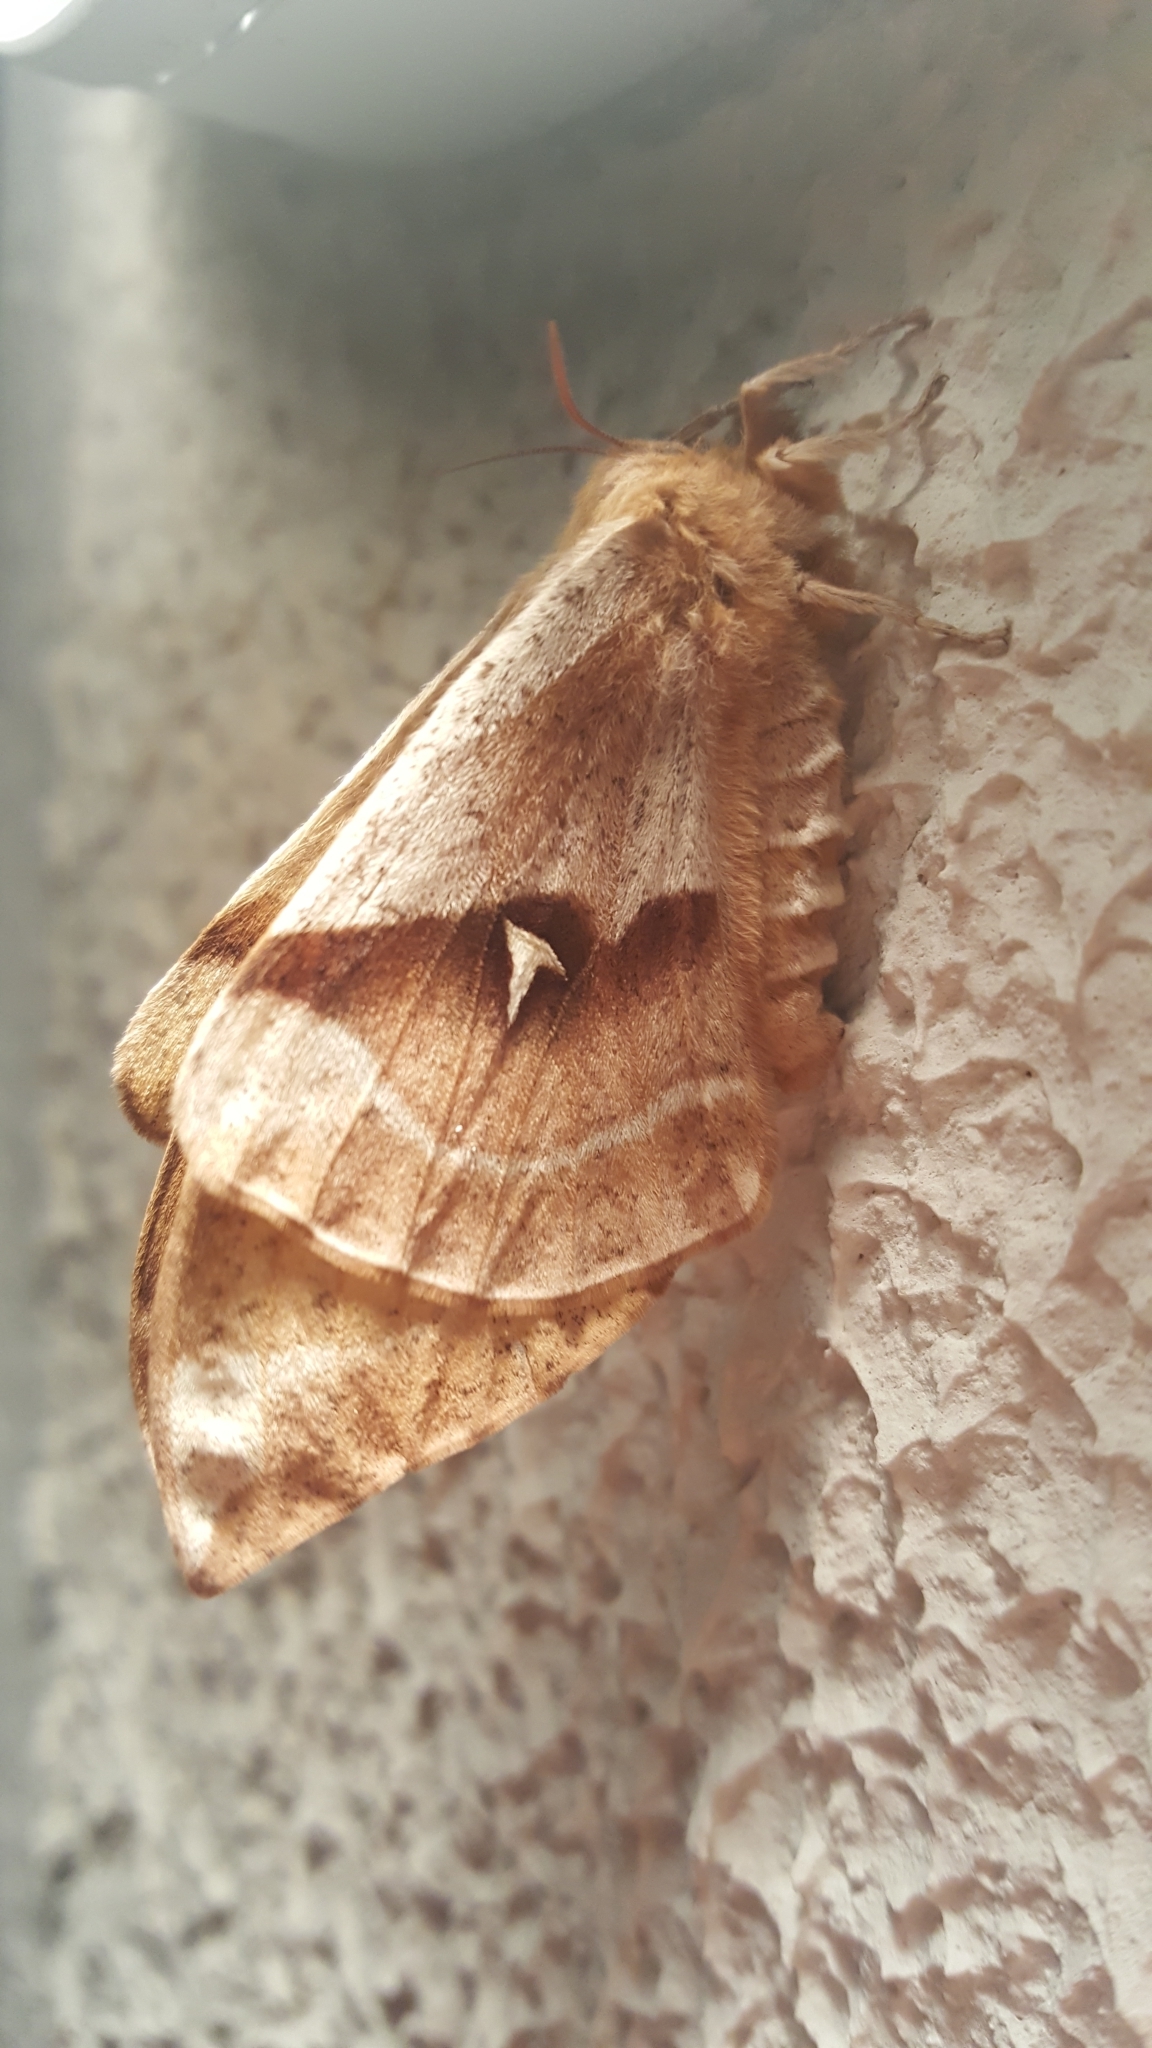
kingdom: Animalia
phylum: Arthropoda
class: Insecta
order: Lepidoptera
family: Saturniidae
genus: Aglia
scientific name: Aglia tau
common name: Tau emperor
